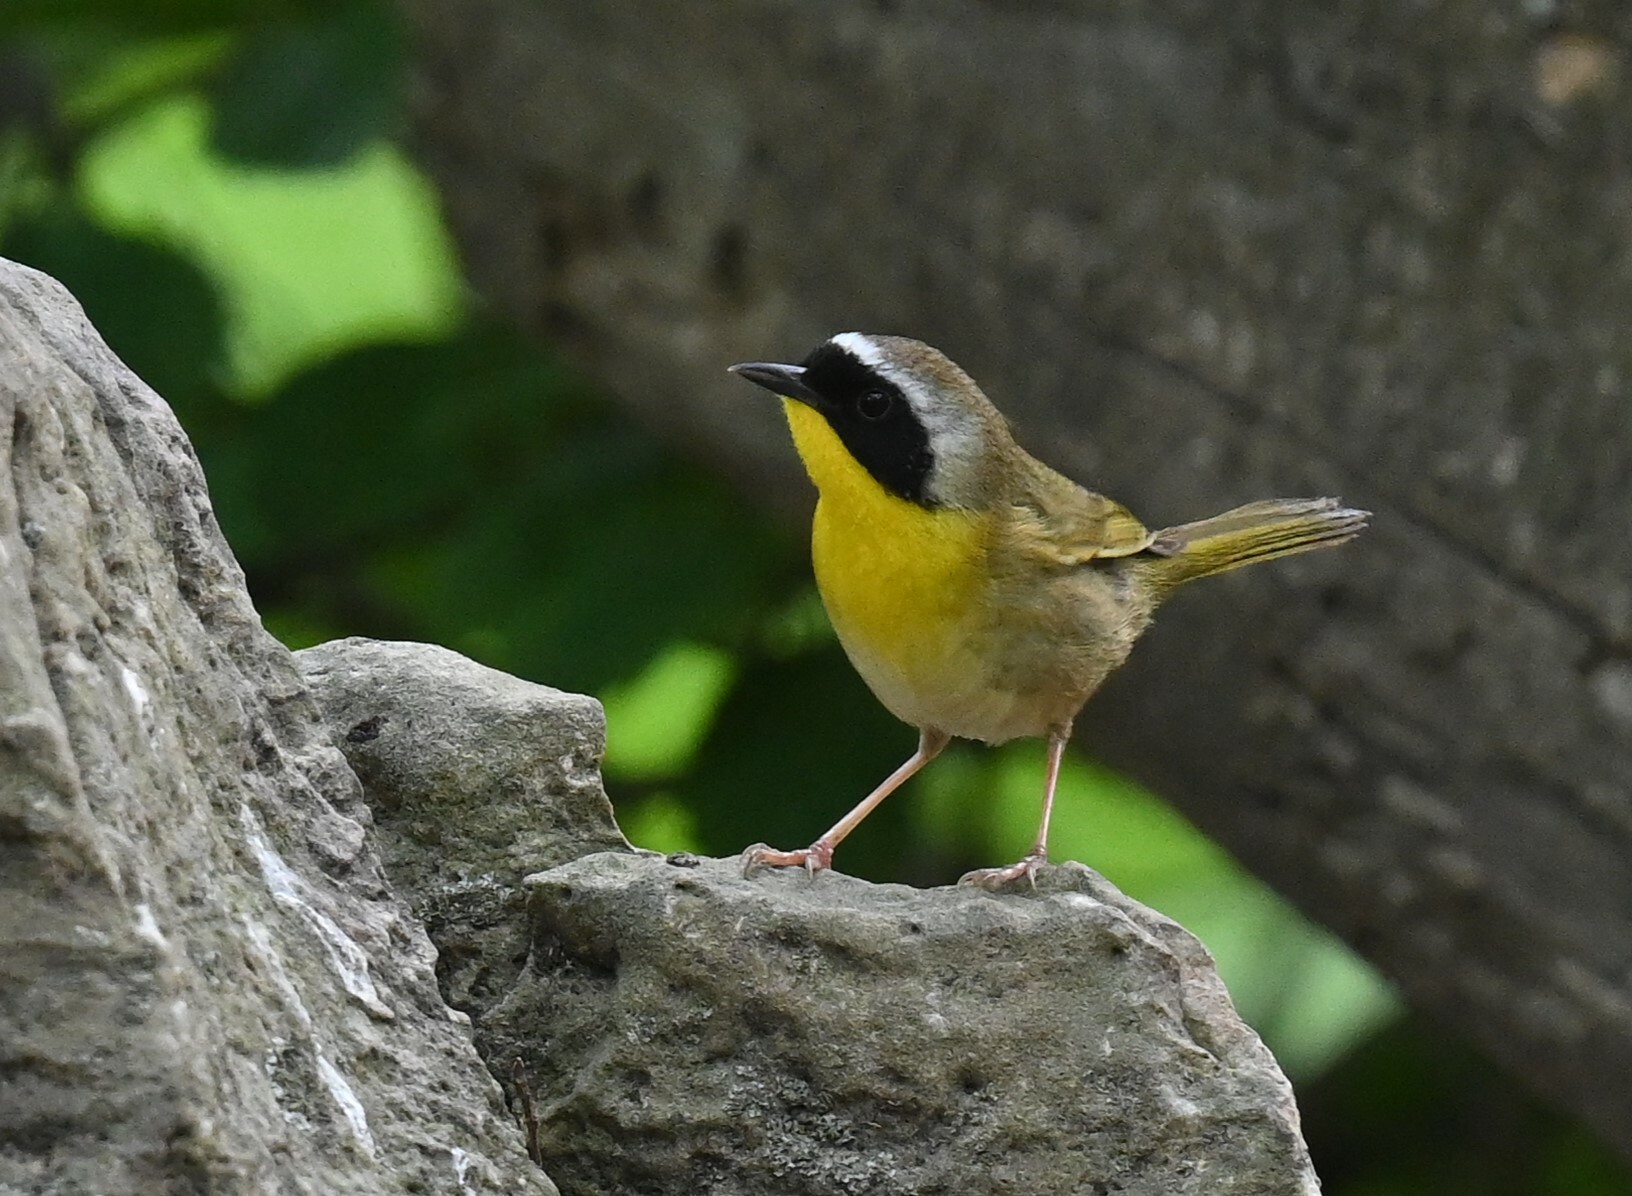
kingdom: Animalia
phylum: Chordata
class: Aves
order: Passeriformes
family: Parulidae
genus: Geothlypis
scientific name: Geothlypis trichas
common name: Common yellowthroat
